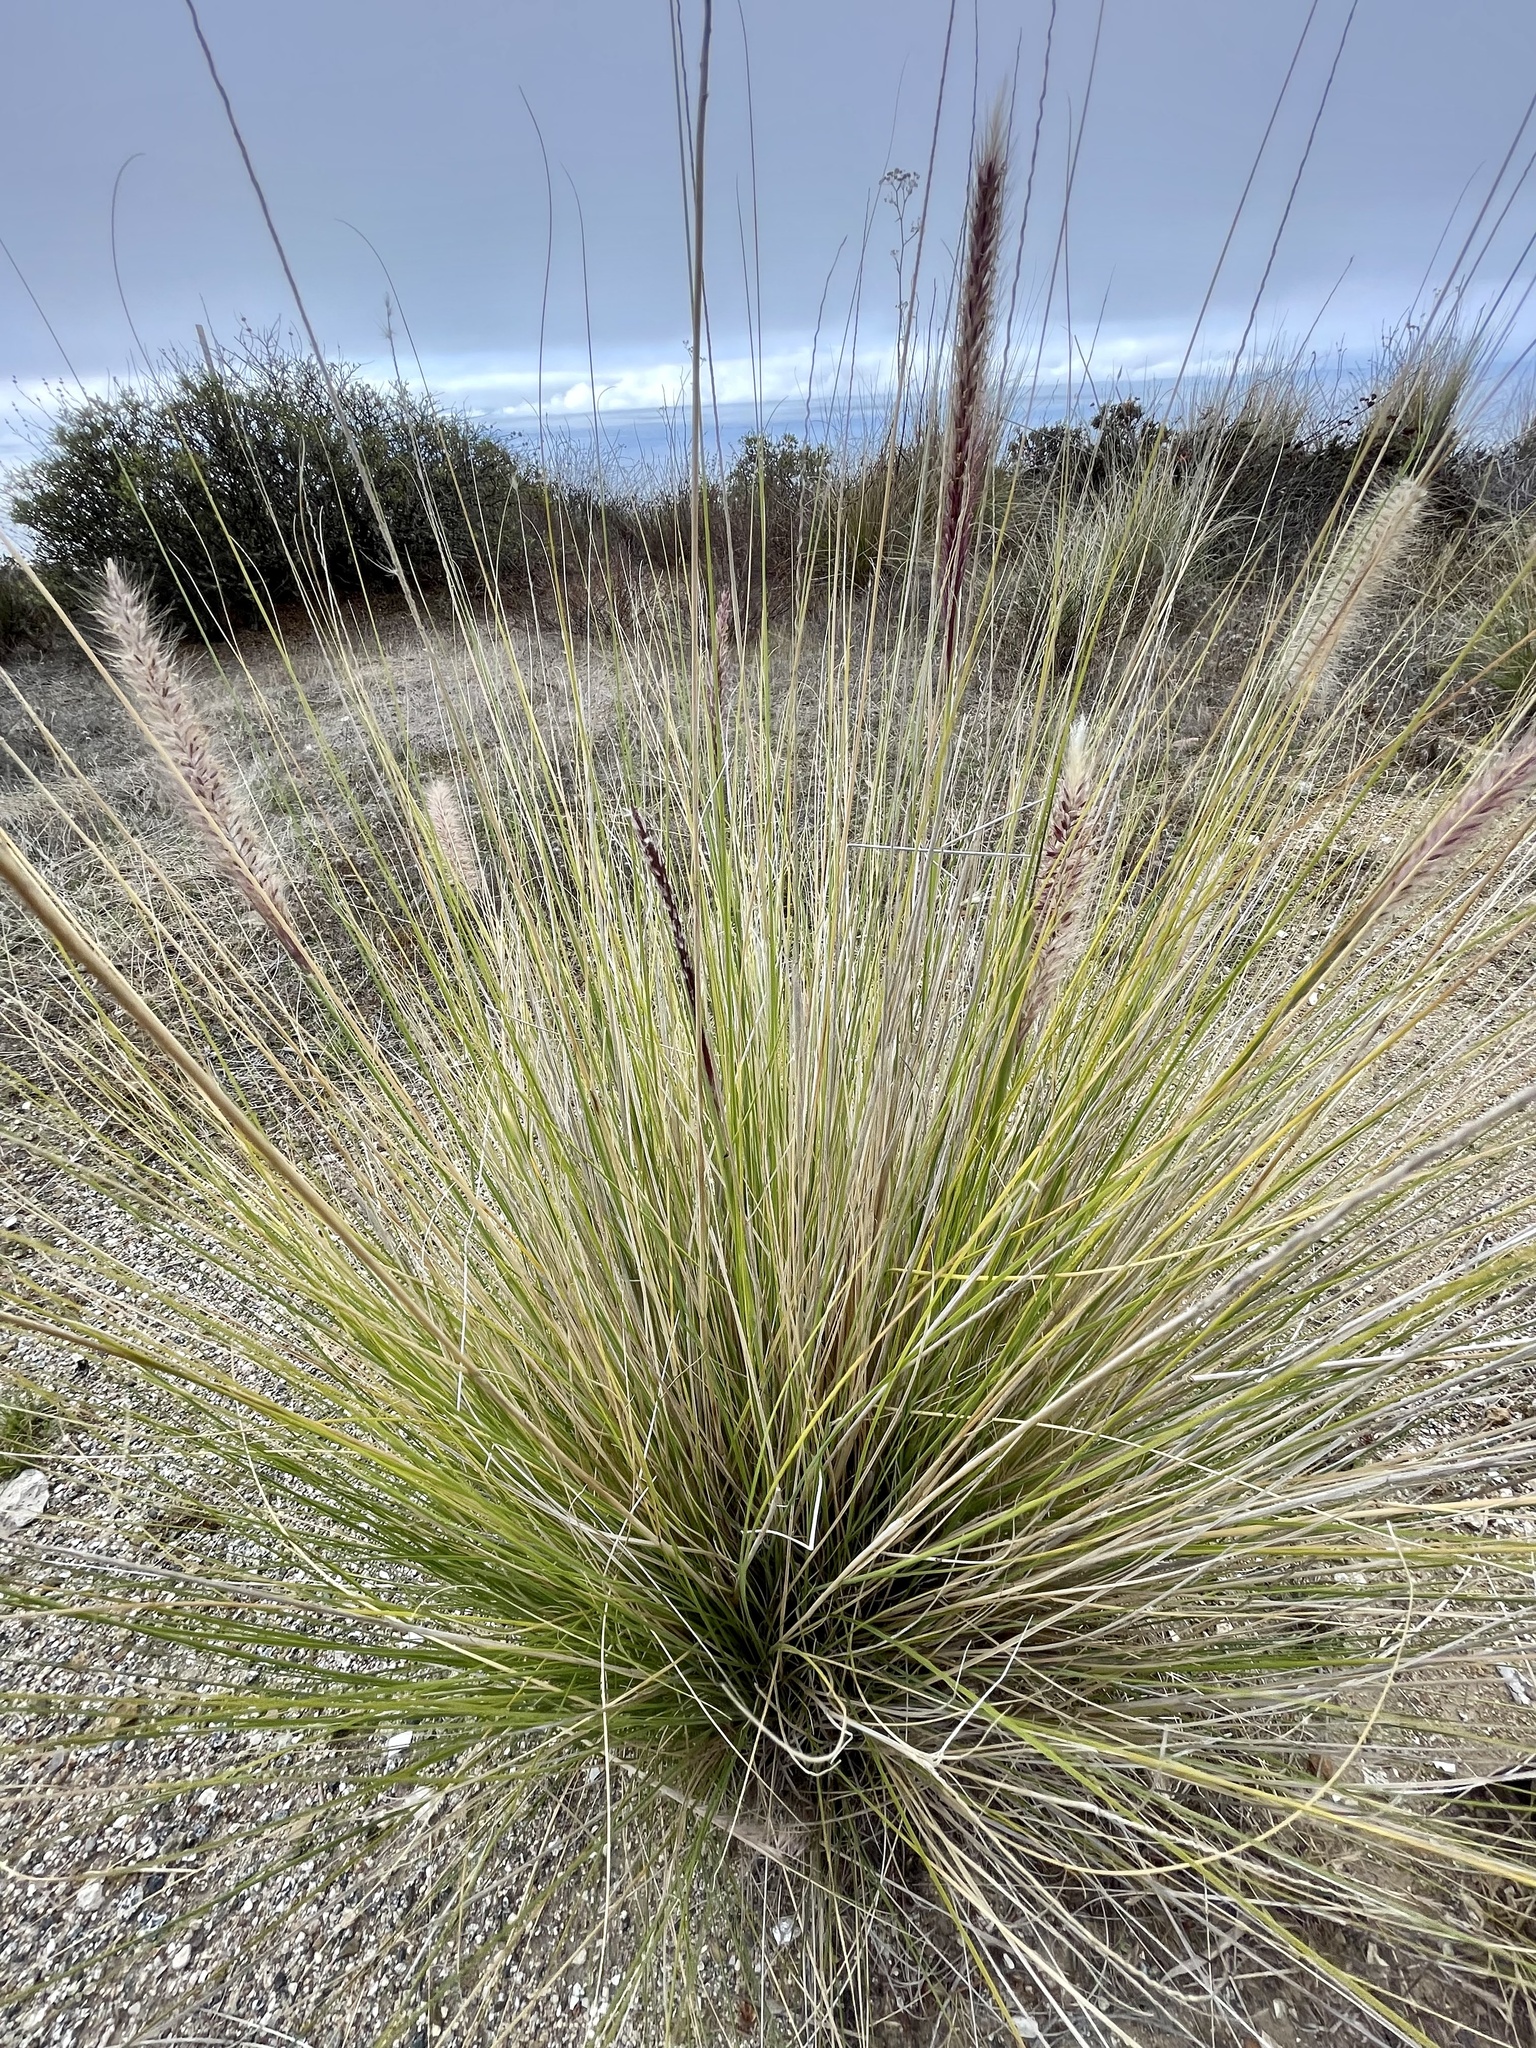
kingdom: Plantae
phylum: Tracheophyta
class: Liliopsida
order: Poales
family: Poaceae
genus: Cenchrus
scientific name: Cenchrus setaceus
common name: Crimson fountaingrass
